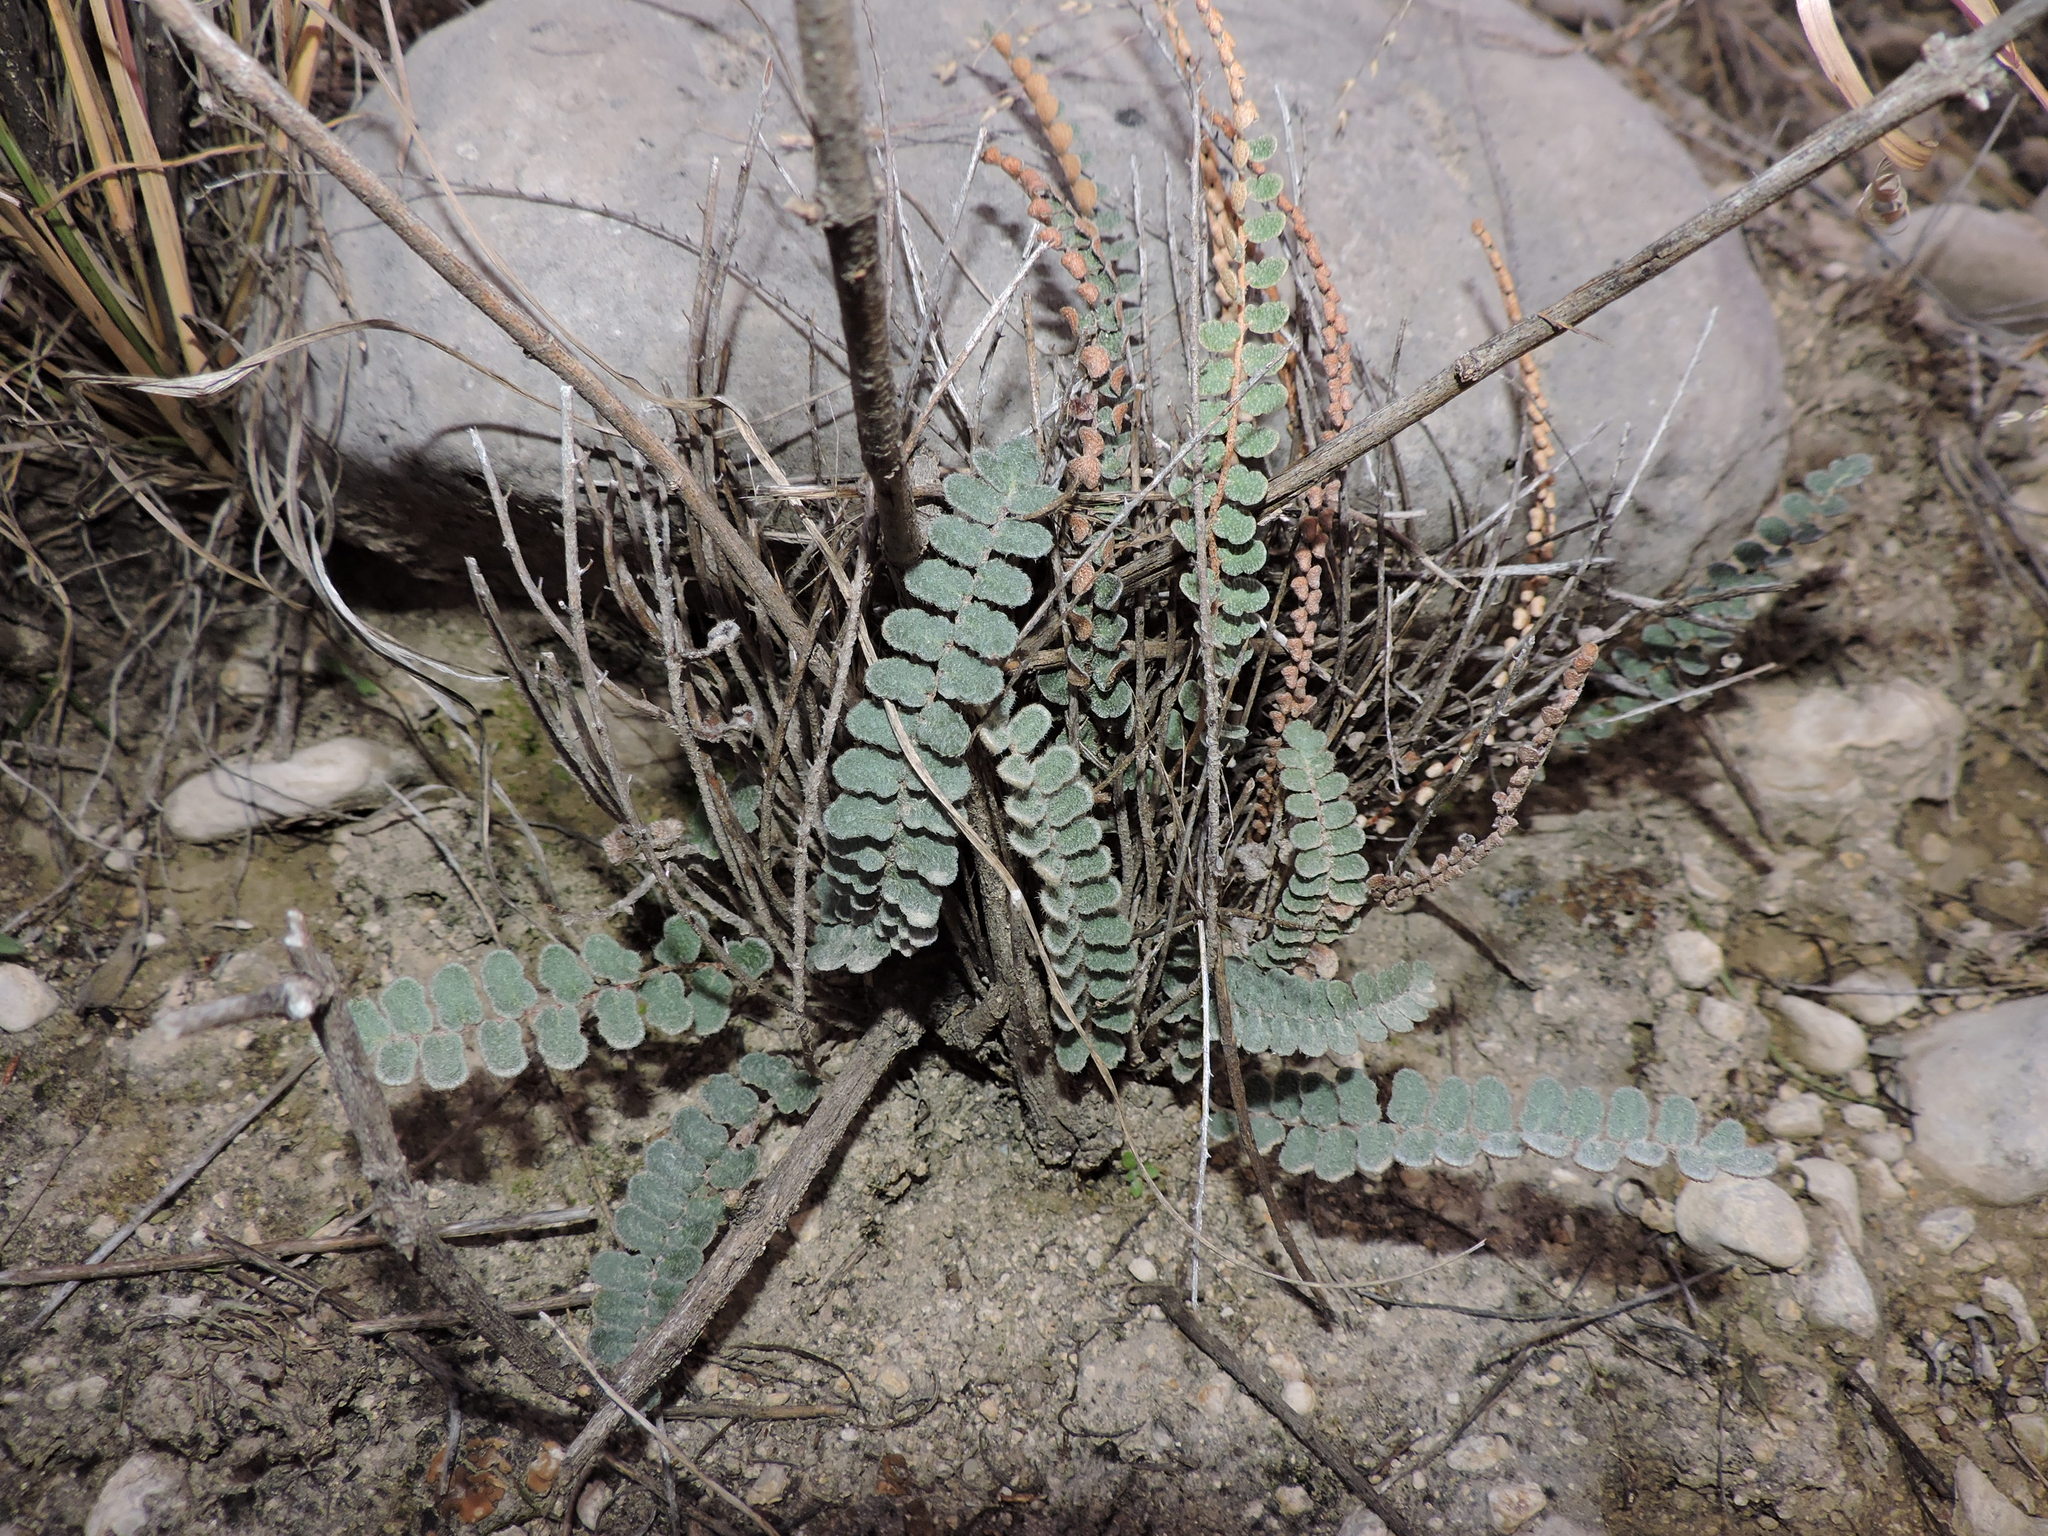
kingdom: Plantae
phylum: Tracheophyta
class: Polypodiopsida
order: Polypodiales
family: Pteridaceae
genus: Astrolepis
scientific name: Astrolepis cochisensis
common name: Scaly cloak fern
